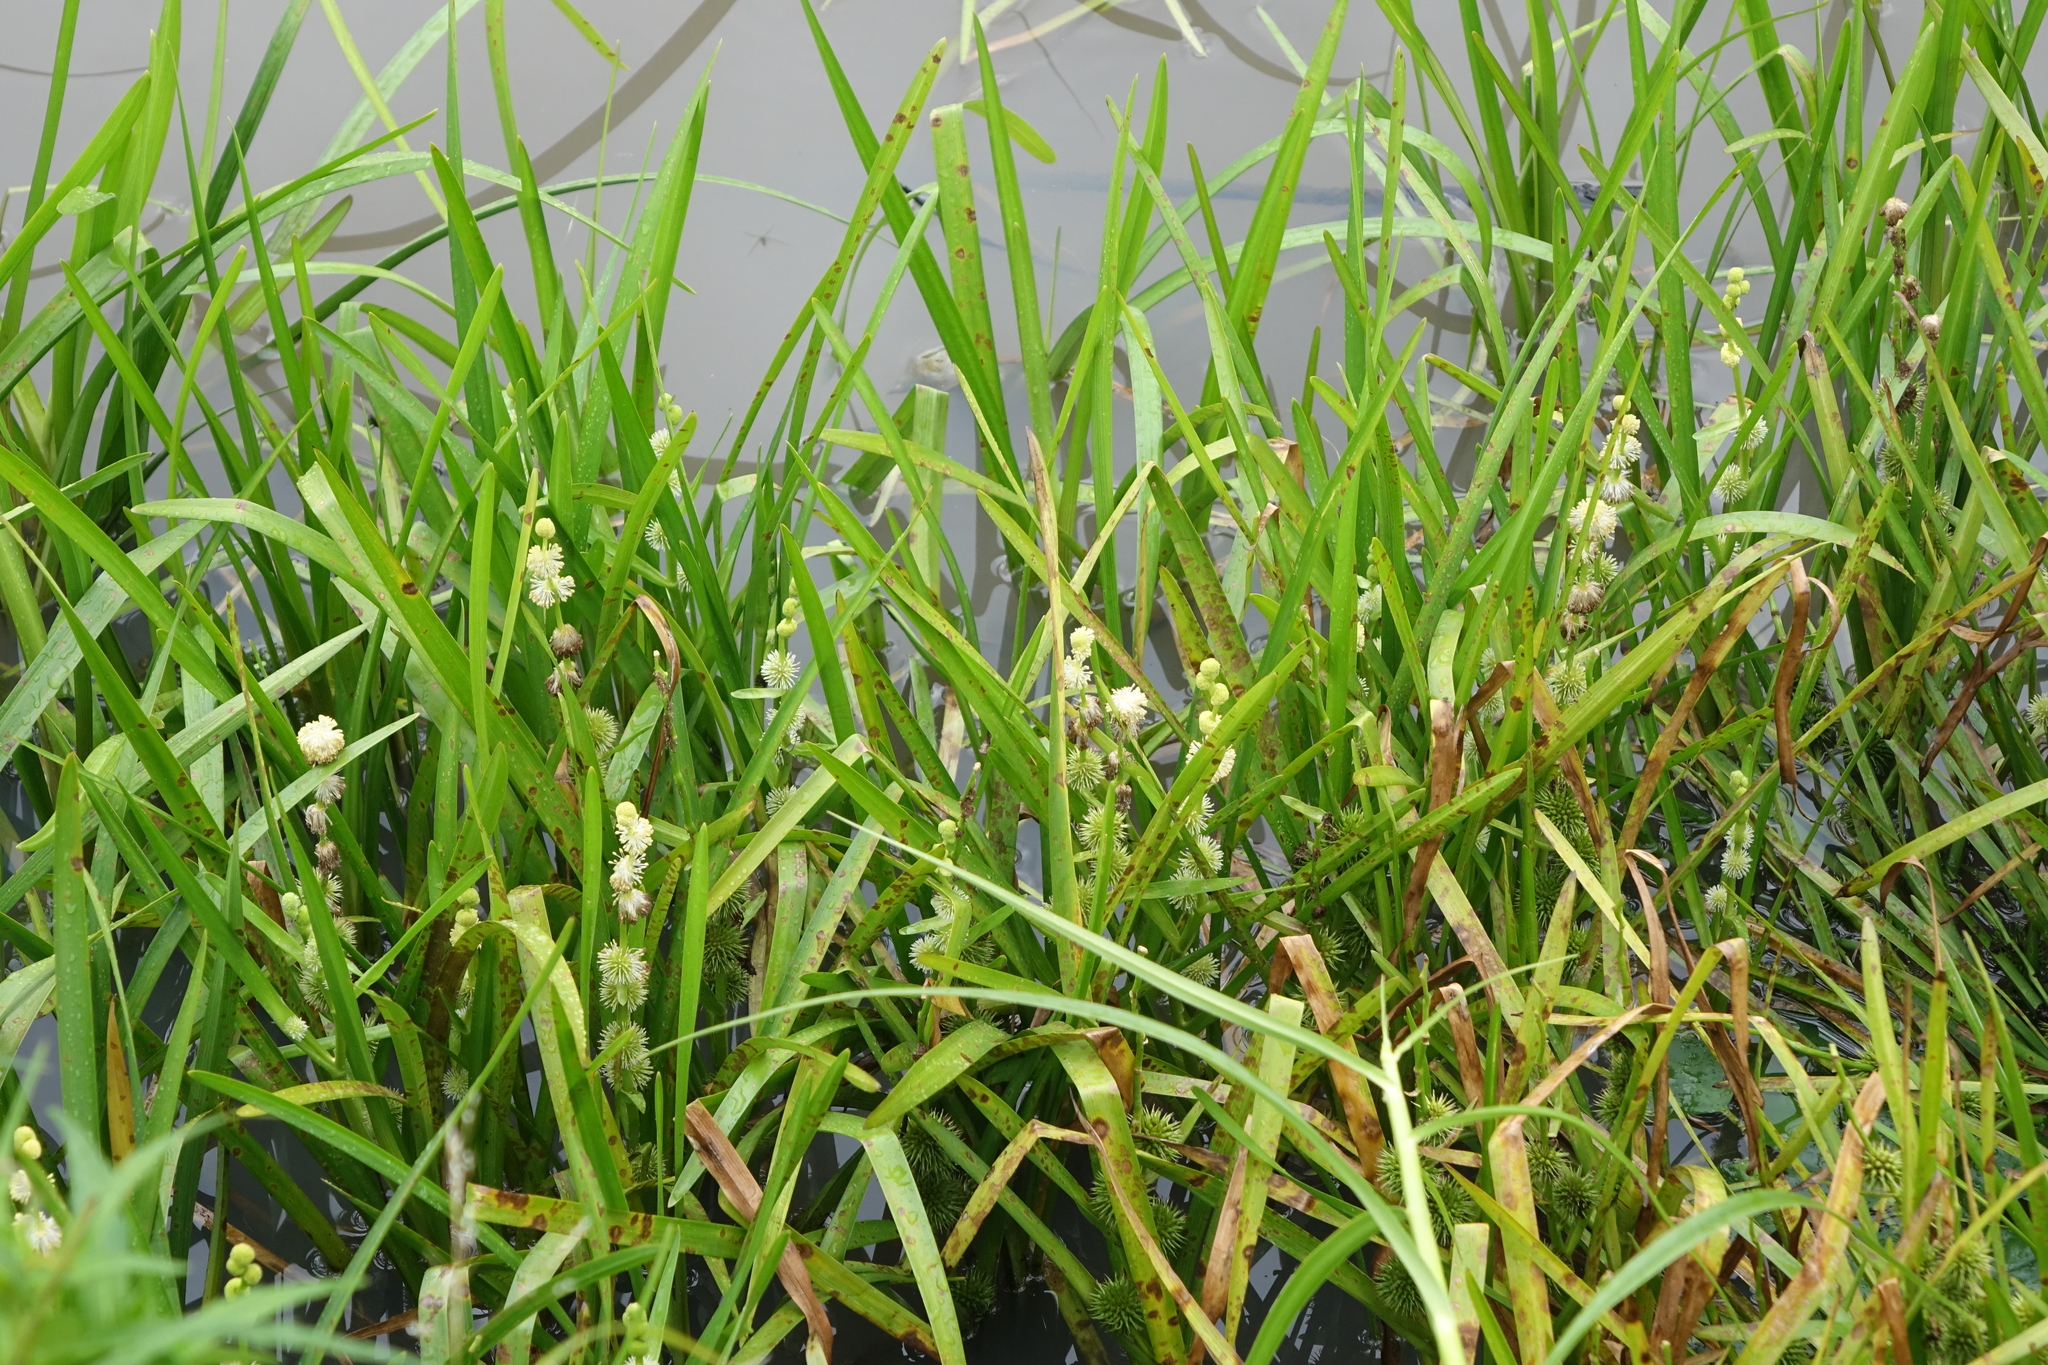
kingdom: Plantae
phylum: Tracheophyta
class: Liliopsida
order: Poales
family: Typhaceae
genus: Sparganium
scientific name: Sparganium emersum
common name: Unbranched bur-reed
